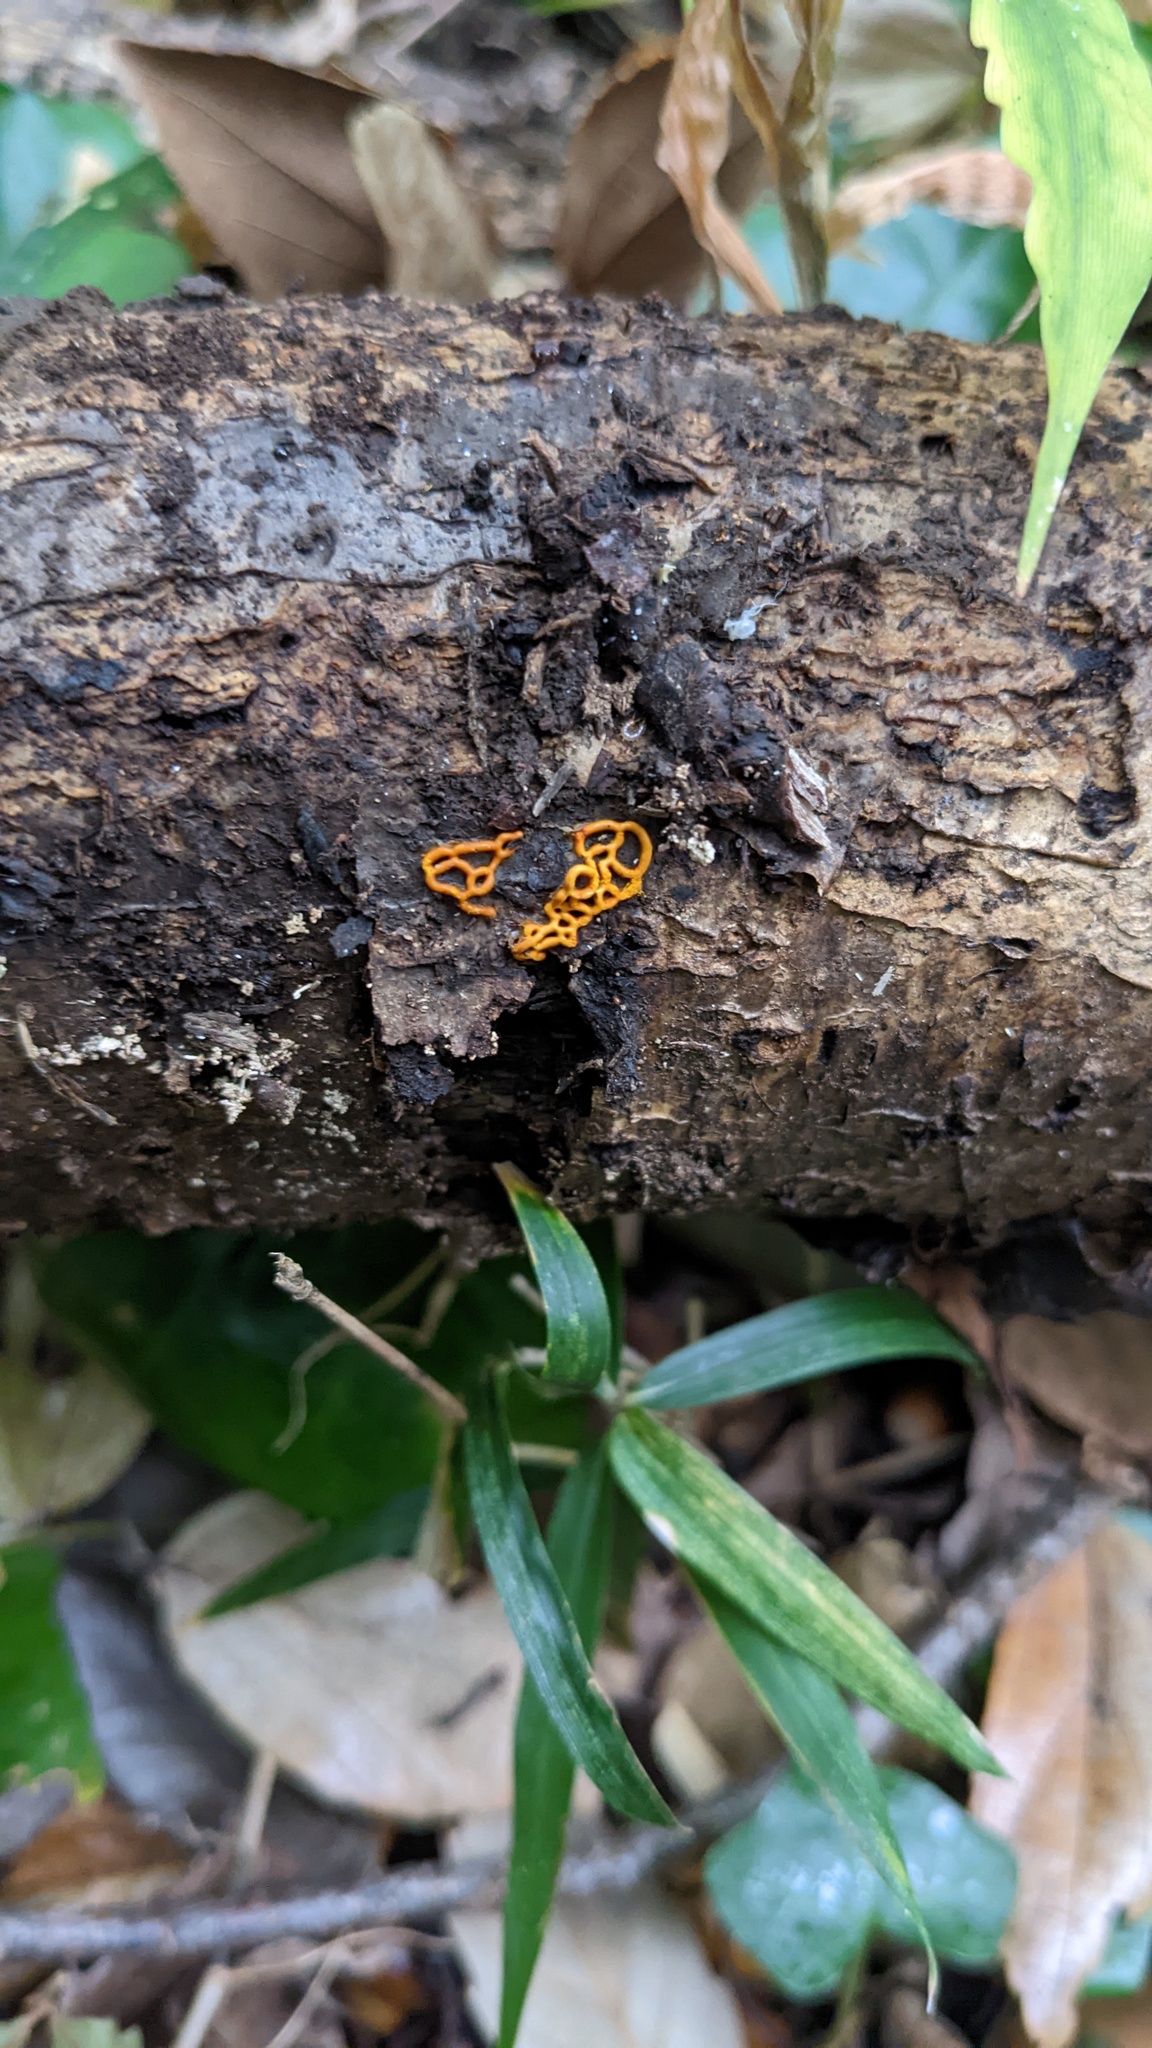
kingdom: Protozoa
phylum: Mycetozoa
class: Myxomycetes
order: Trichiales
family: Arcyriaceae
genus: Hemitrichia
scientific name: Hemitrichia serpula
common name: Pretzel slime mold
